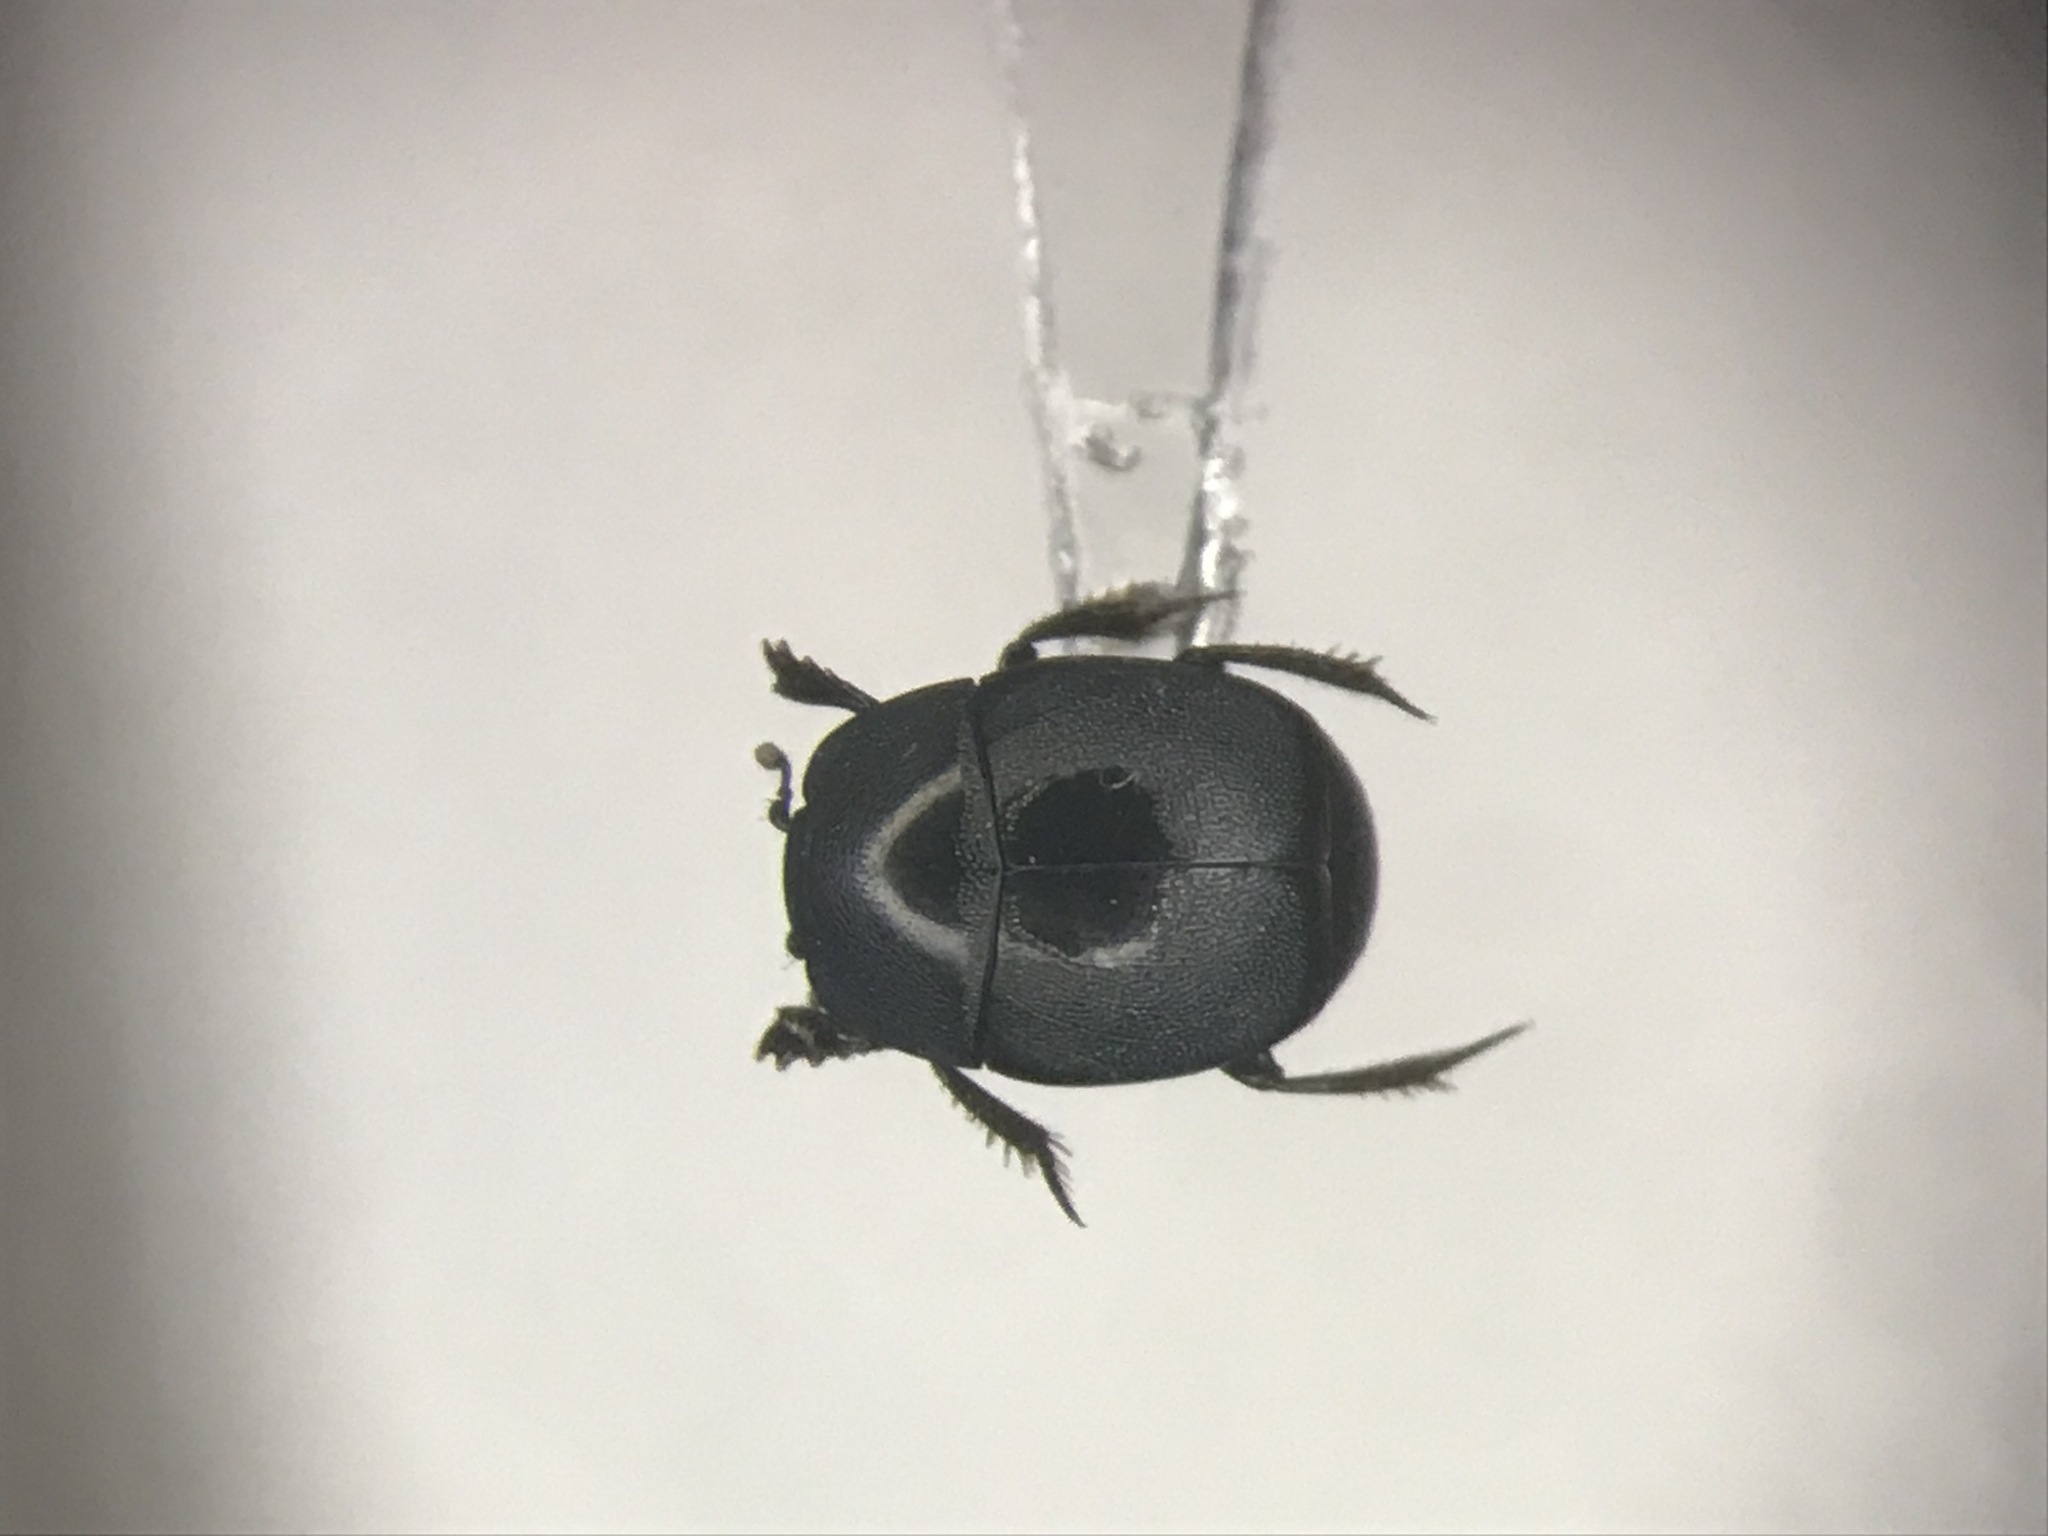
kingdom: Animalia
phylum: Arthropoda
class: Insecta
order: Coleoptera
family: Histeridae
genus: Hypocaccus
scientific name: Hypocaccus fitchi
